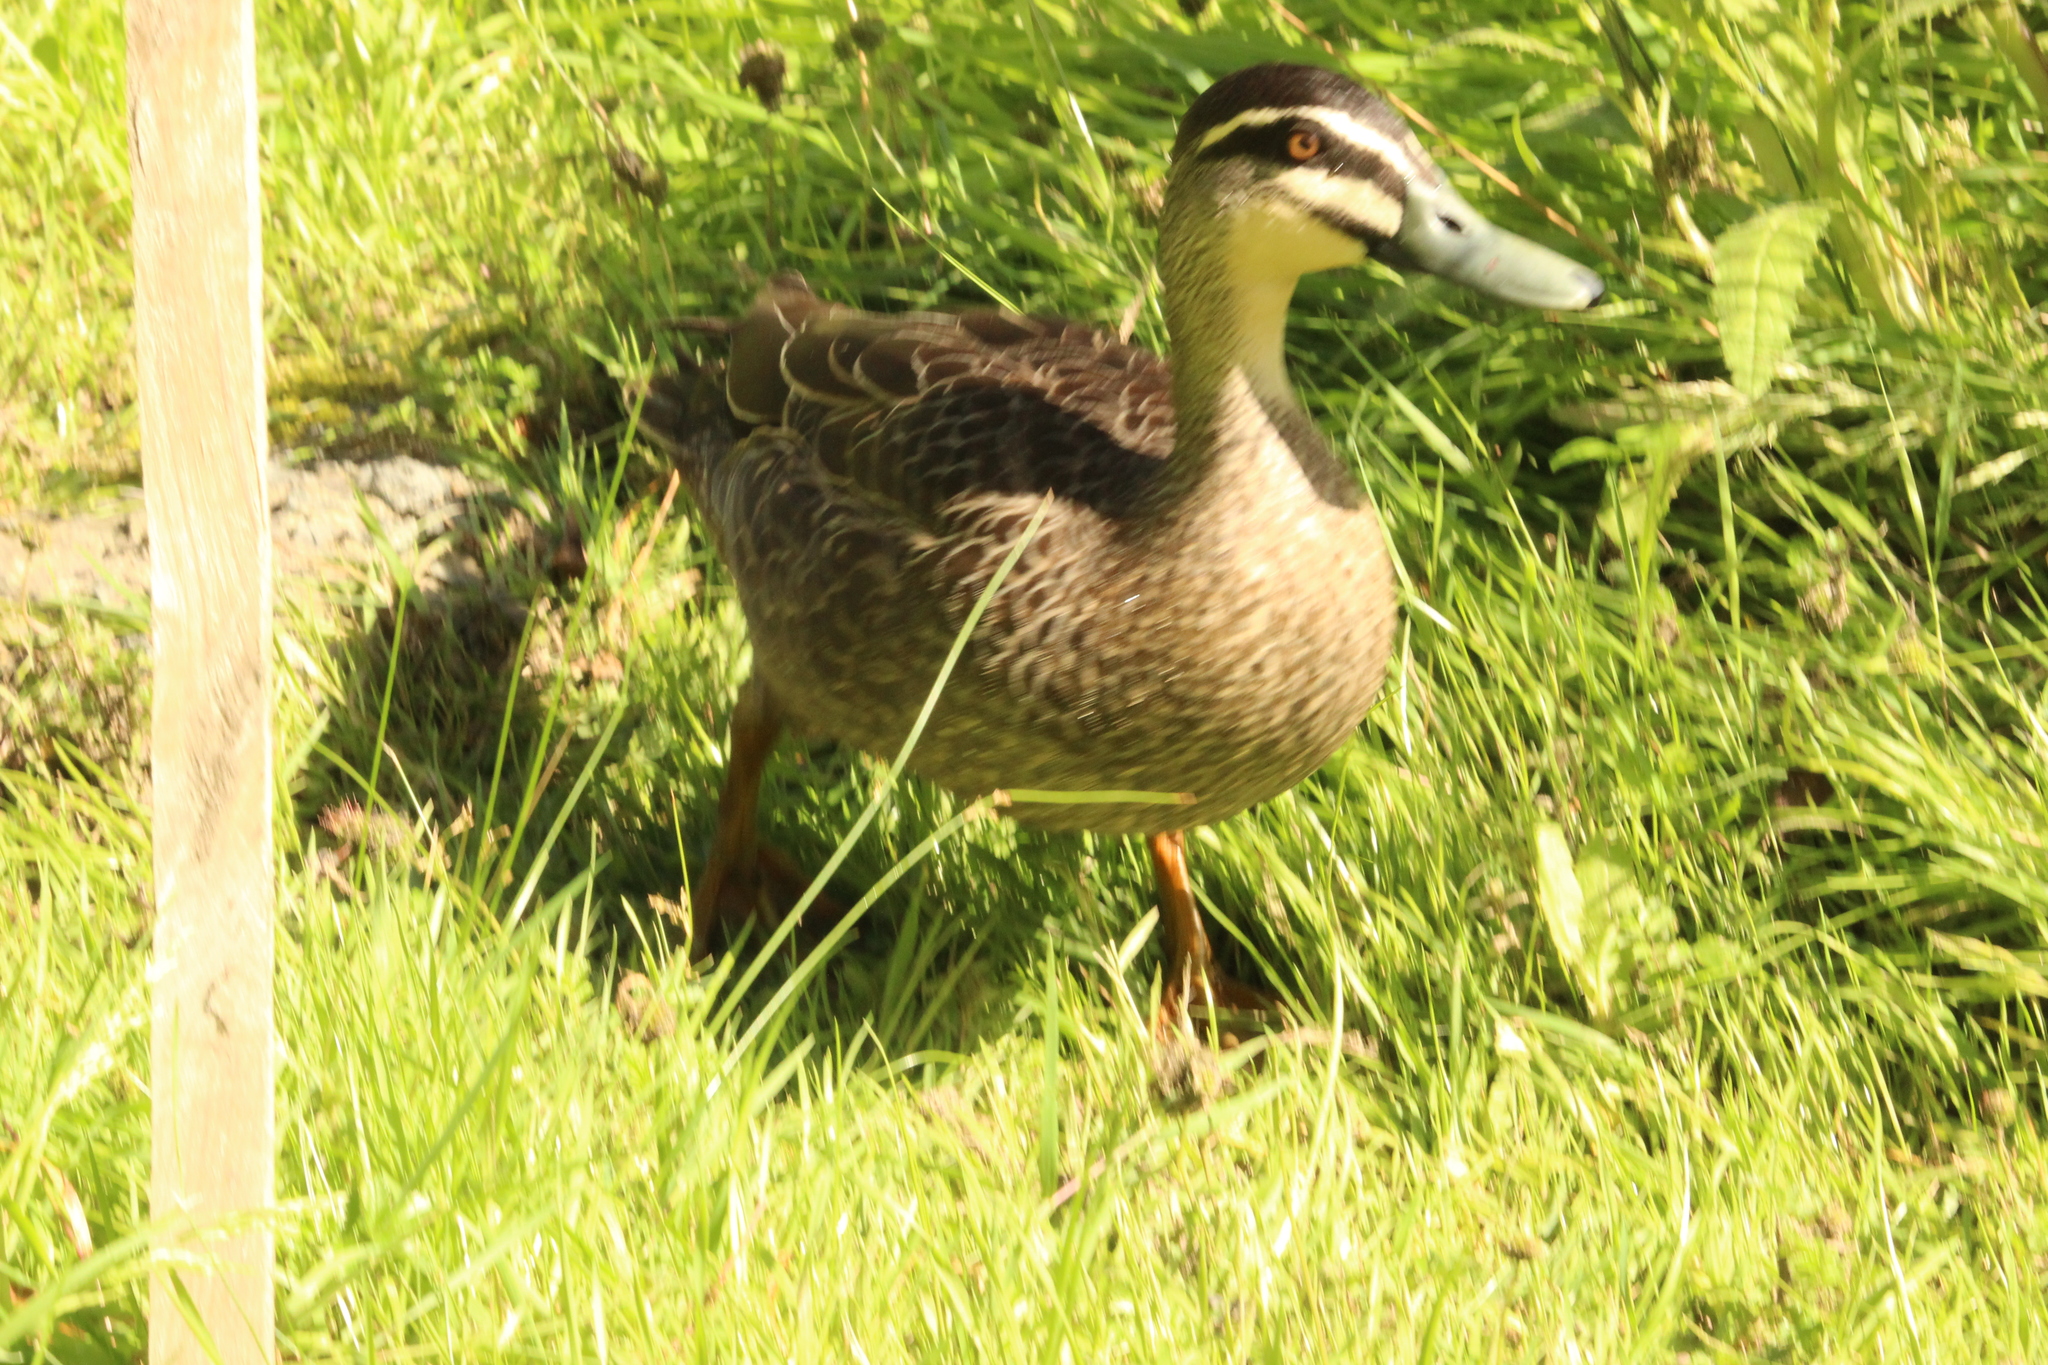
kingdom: Animalia
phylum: Chordata
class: Aves
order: Anseriformes
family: Anatidae
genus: Anas
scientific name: Anas
